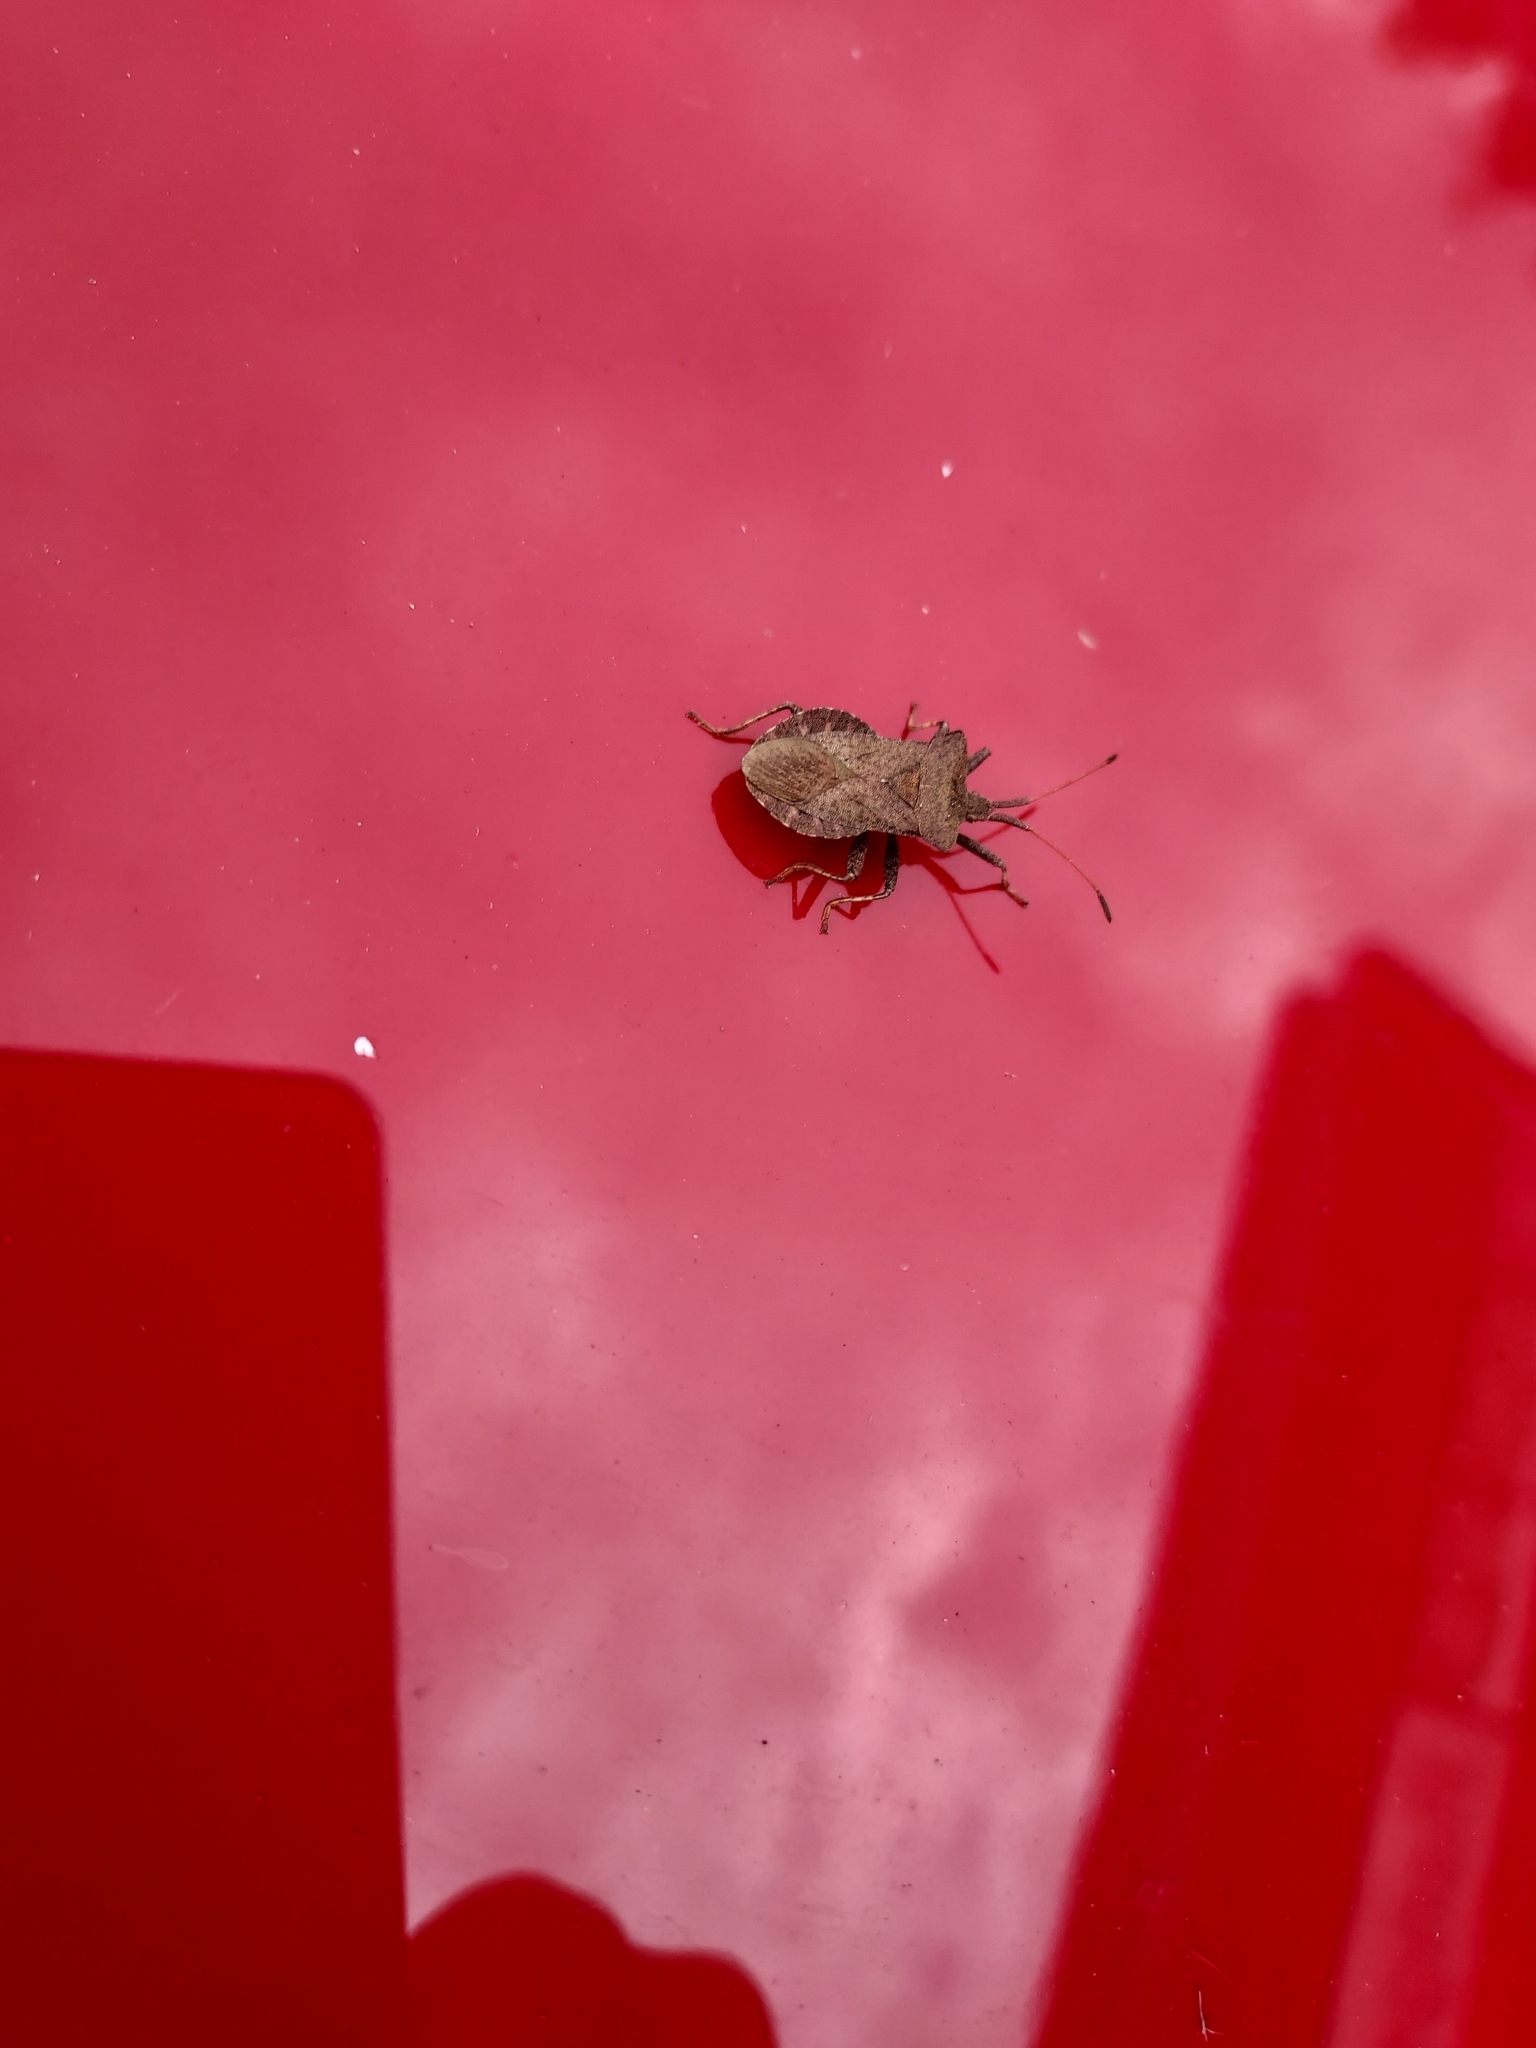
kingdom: Animalia
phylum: Arthropoda
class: Insecta
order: Hemiptera
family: Coreidae
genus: Coreus
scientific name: Coreus marginatus
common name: Dock bug
